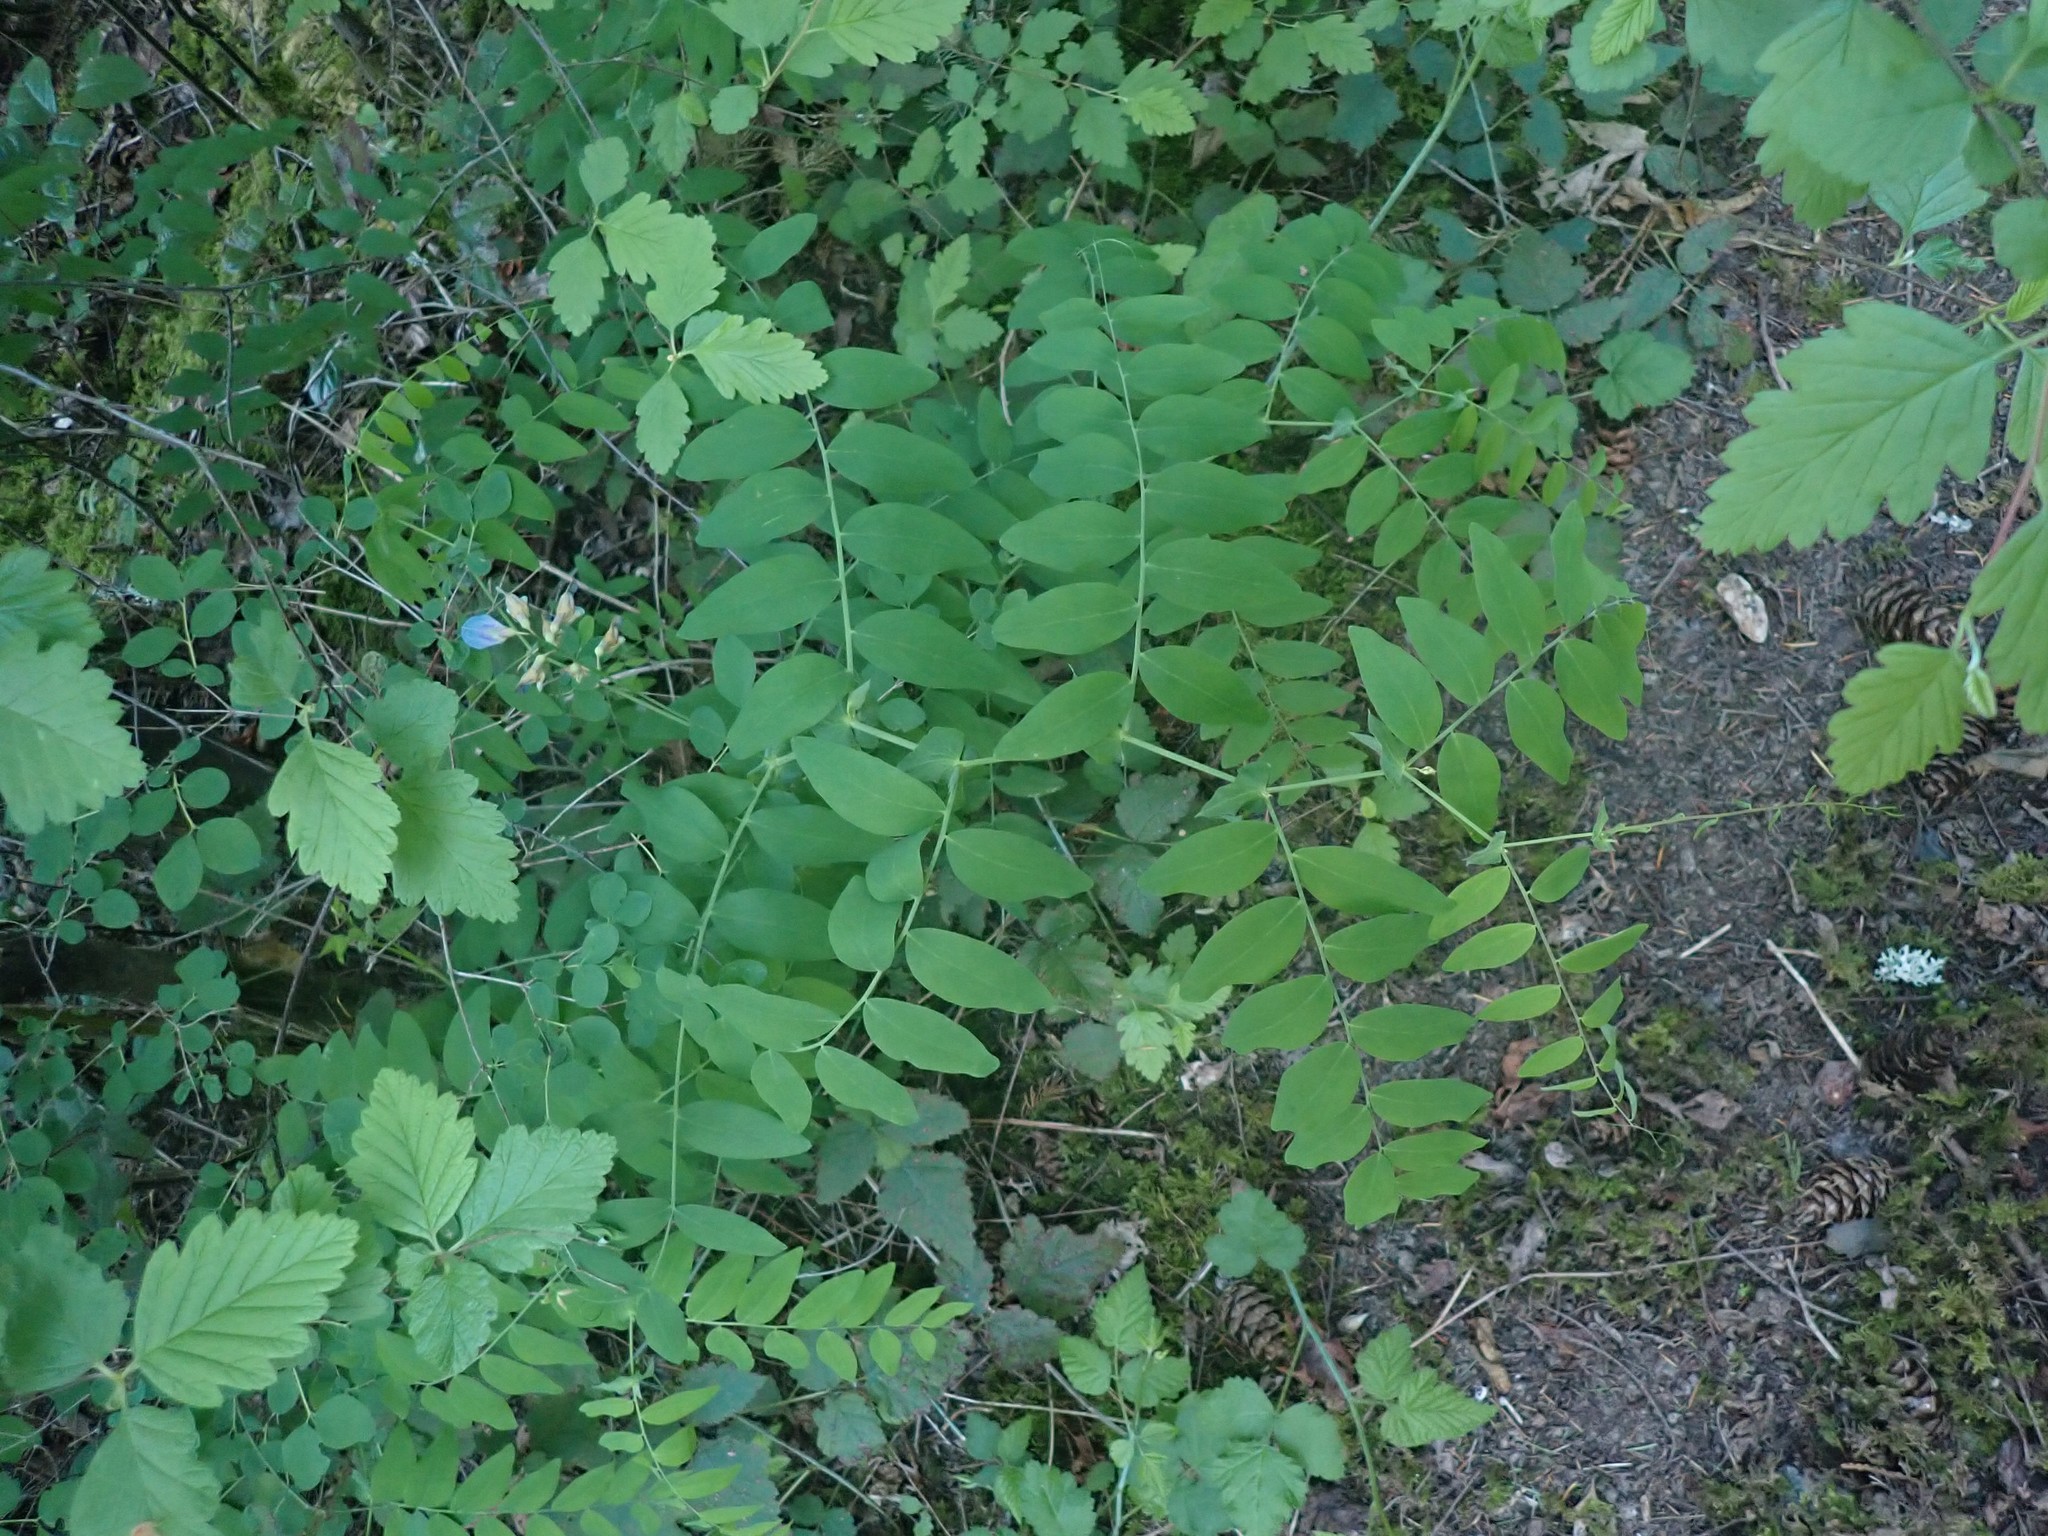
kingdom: Plantae
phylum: Tracheophyta
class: Magnoliopsida
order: Fabales
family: Fabaceae
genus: Lathyrus
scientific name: Lathyrus polyphyllus
